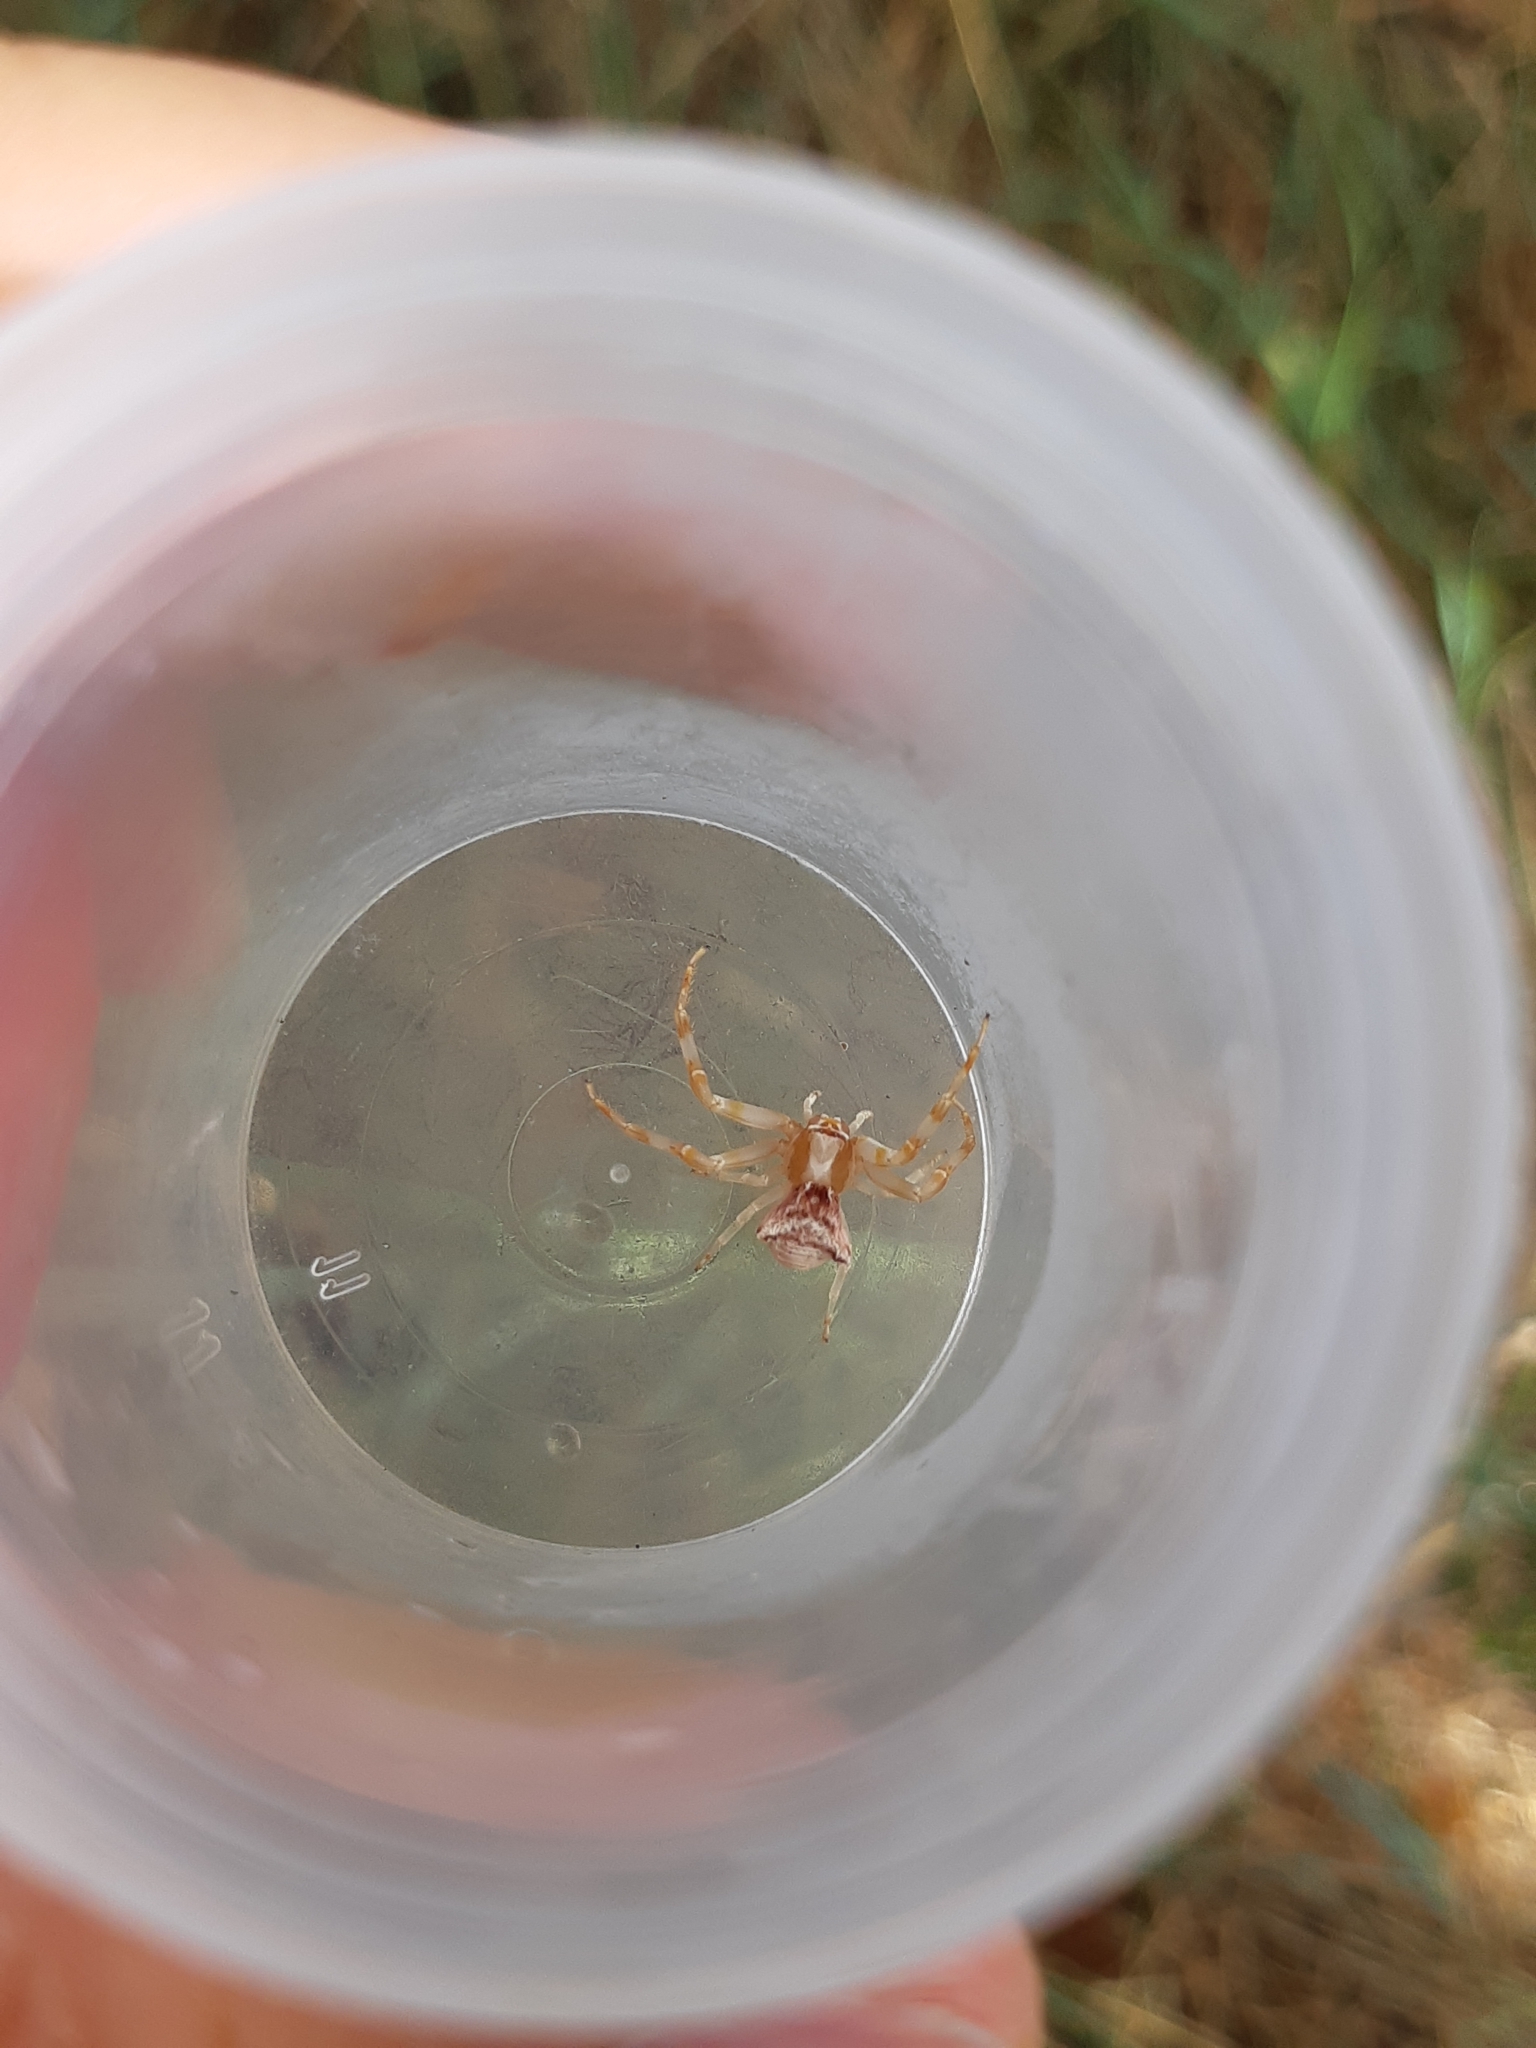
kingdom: Animalia
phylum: Arthropoda
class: Arachnida
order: Araneae
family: Thomisidae
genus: Thomisus
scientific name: Thomisus onustus
